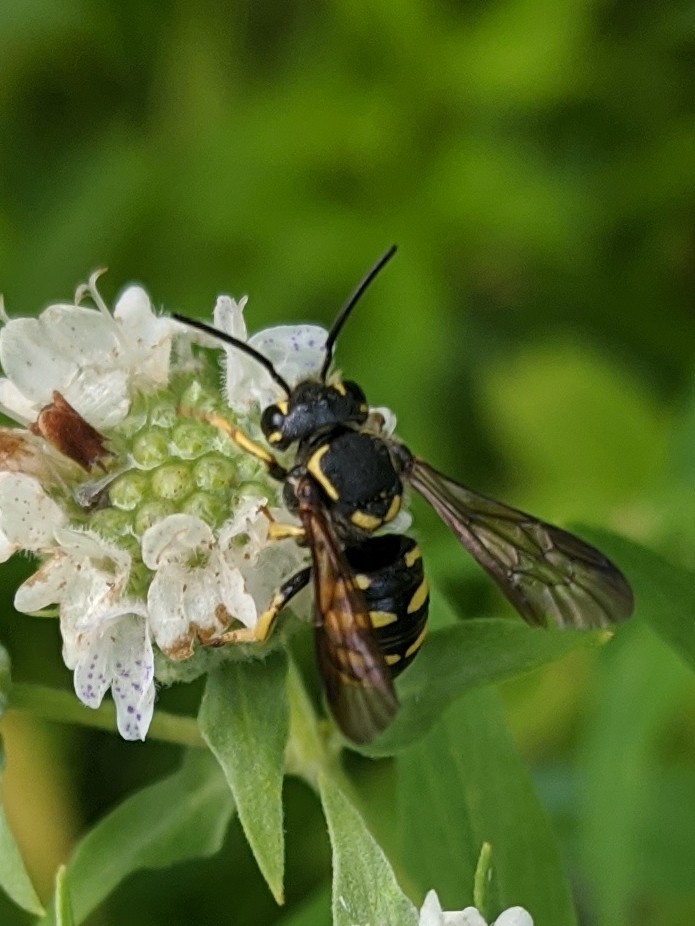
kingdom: Animalia
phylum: Arthropoda
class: Insecta
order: Hymenoptera
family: Megachilidae
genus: Paranthidium
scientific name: Paranthidium jugatorium
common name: Sunflower burrowing-resin bee
